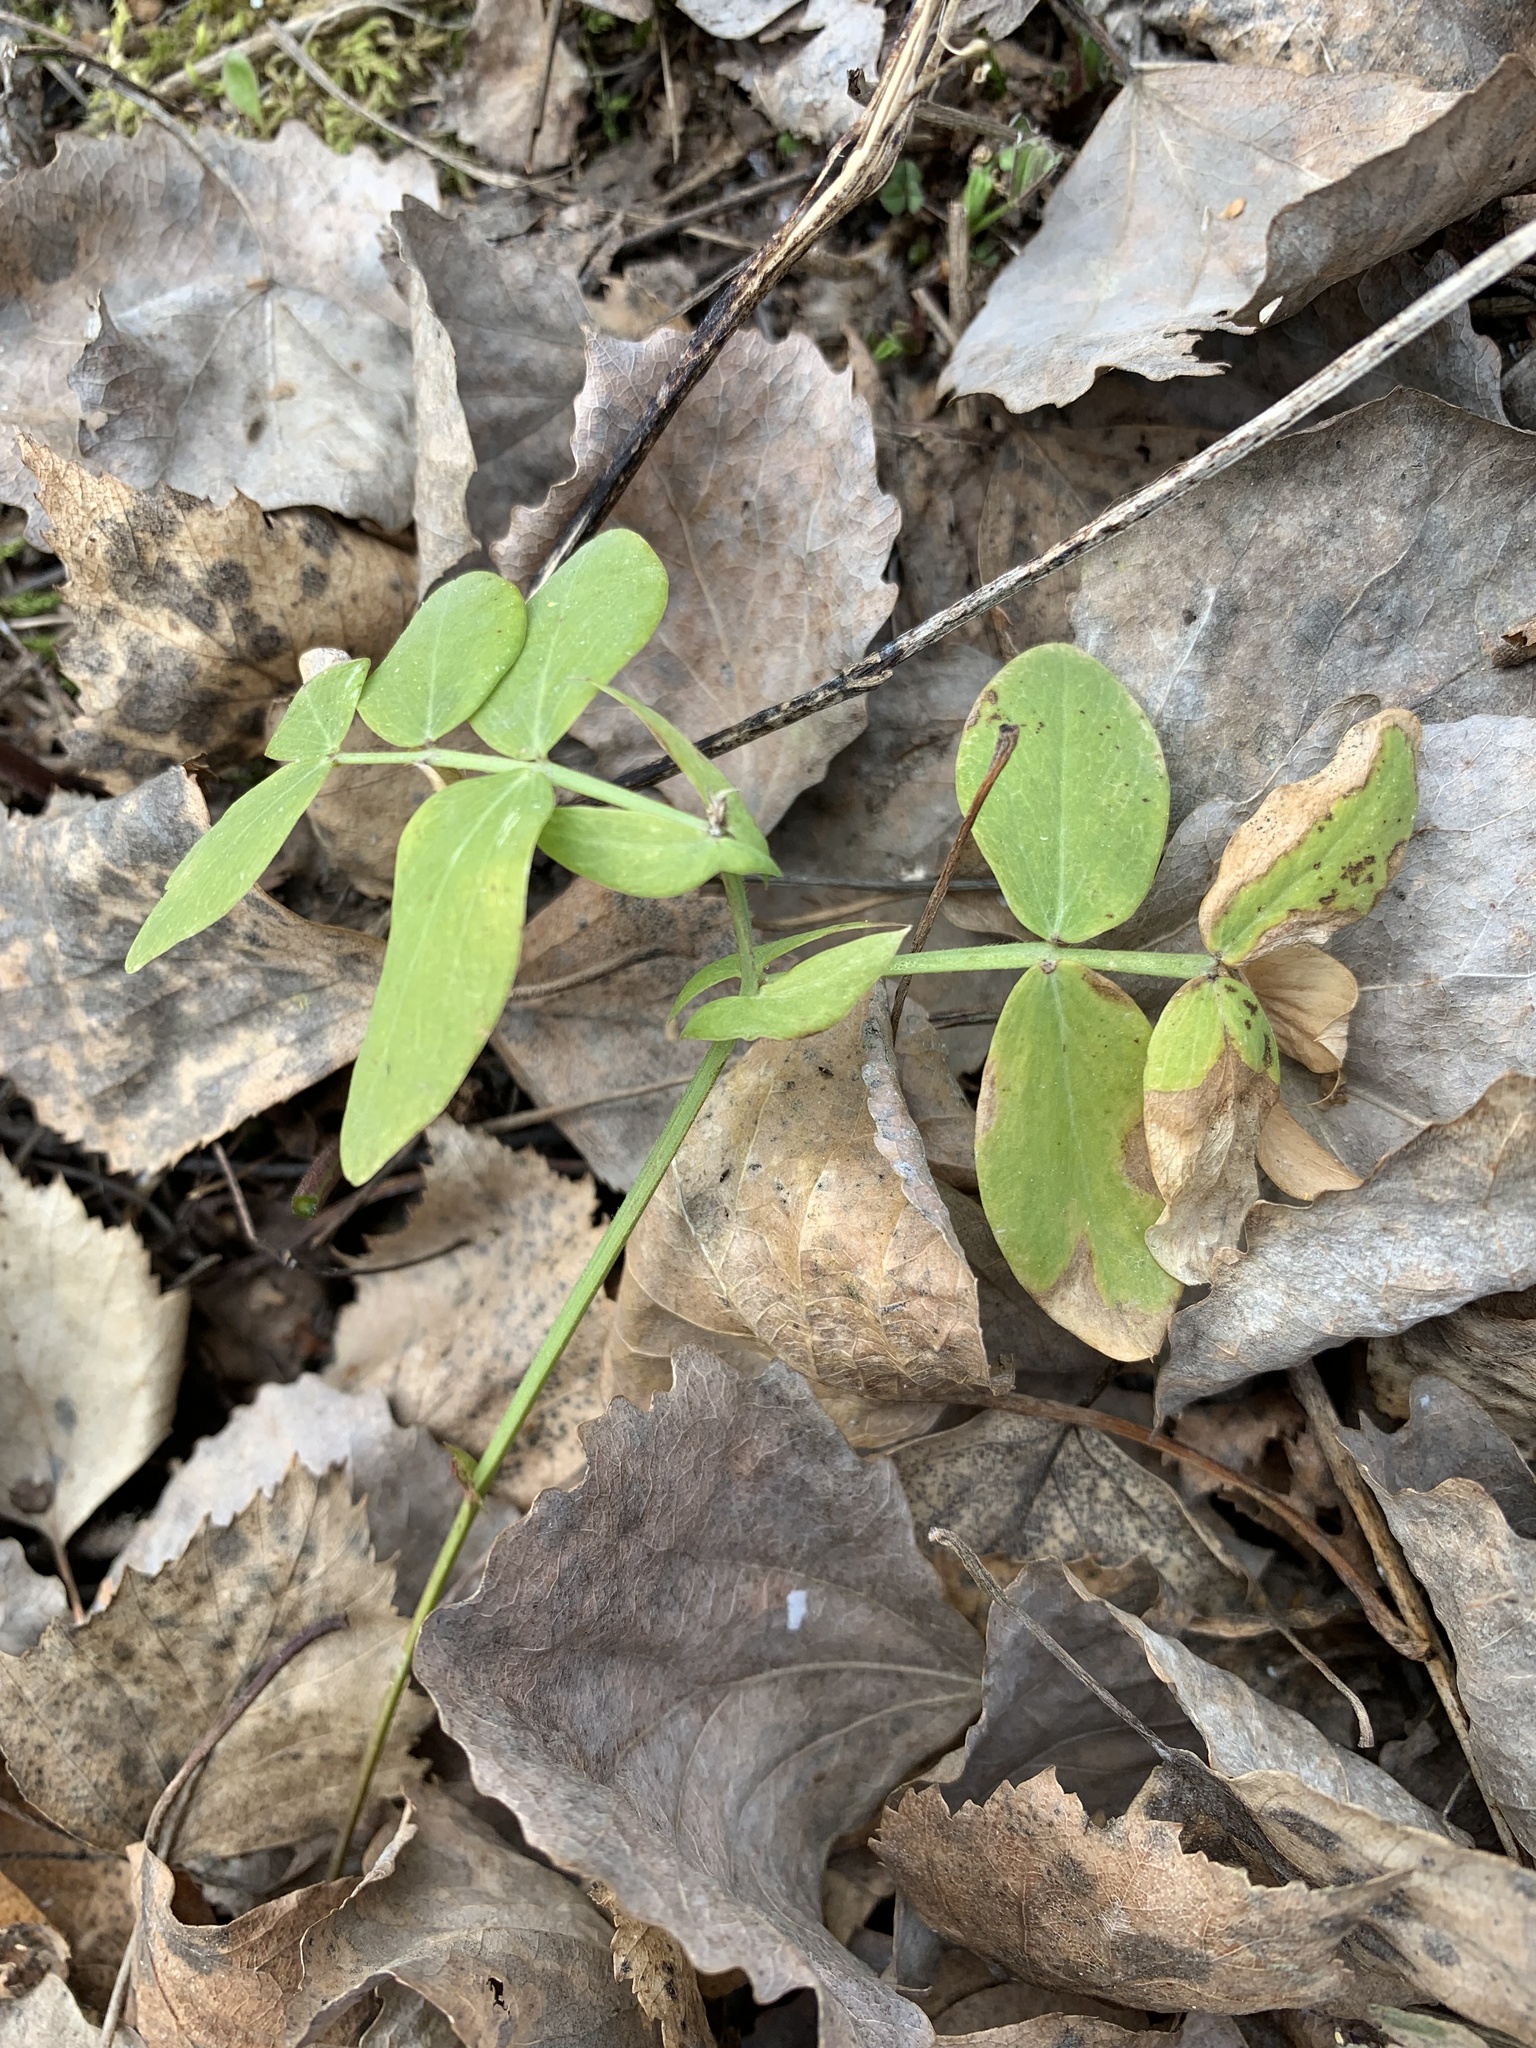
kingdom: Plantae
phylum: Tracheophyta
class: Magnoliopsida
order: Fabales
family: Fabaceae
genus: Lathyrus
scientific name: Lathyrus pisiformis
